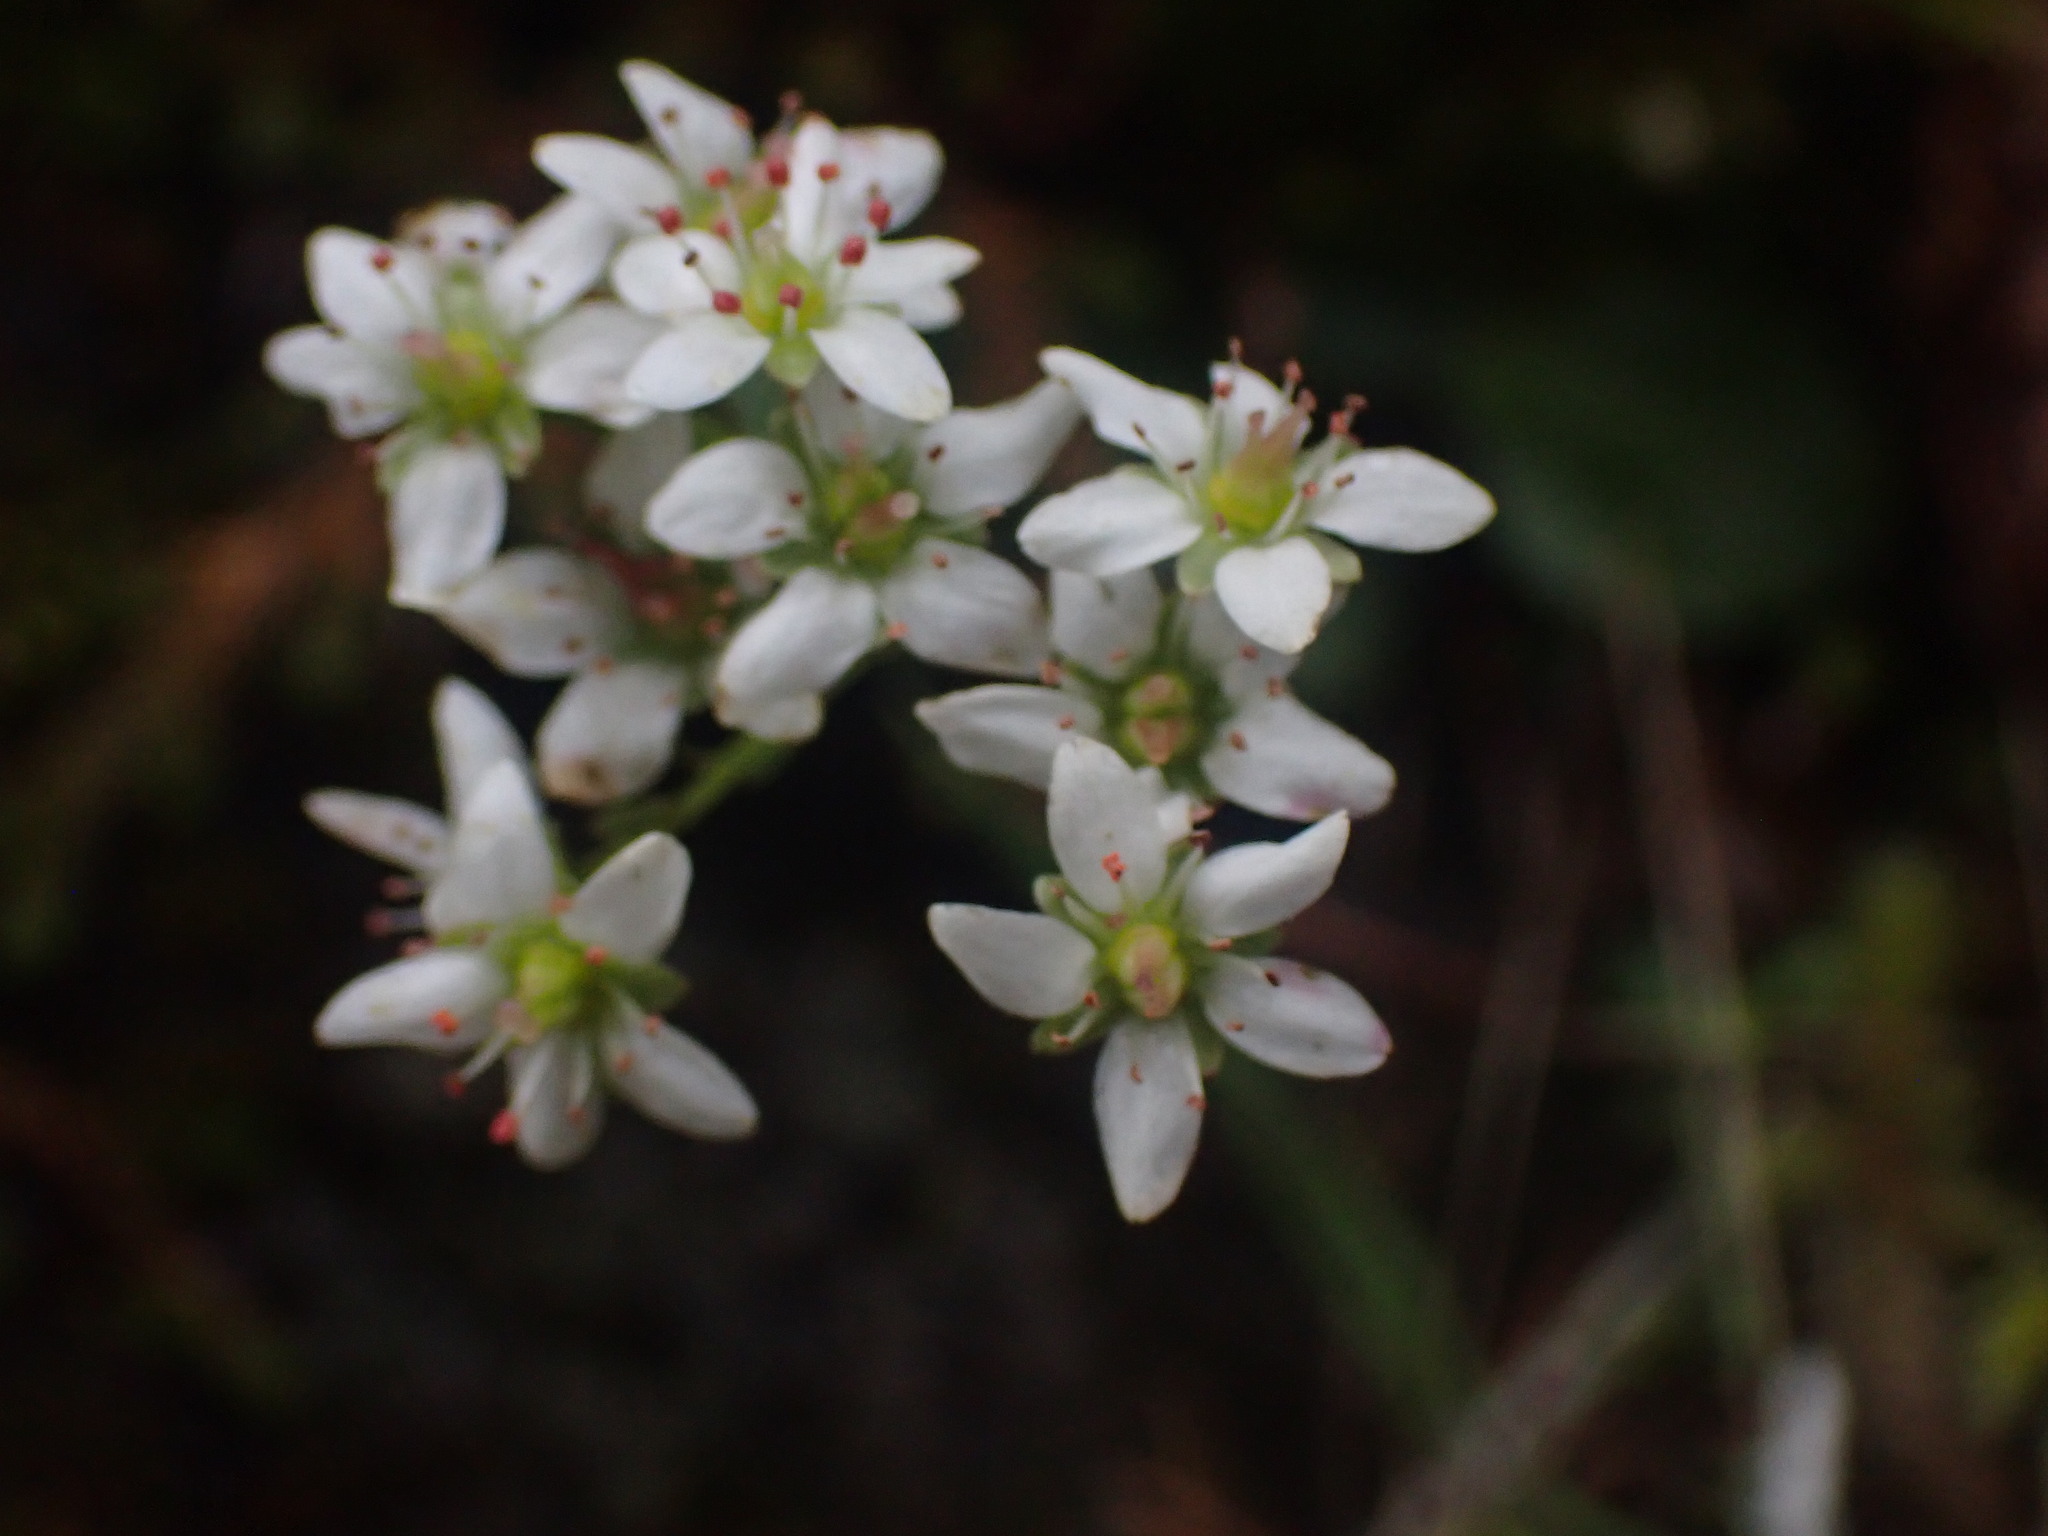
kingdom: Plantae
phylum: Tracheophyta
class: Magnoliopsida
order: Saxifragales
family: Saxifragaceae
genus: Micranthes
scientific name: Micranthes rufidula
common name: Rustyhair saxifrage
